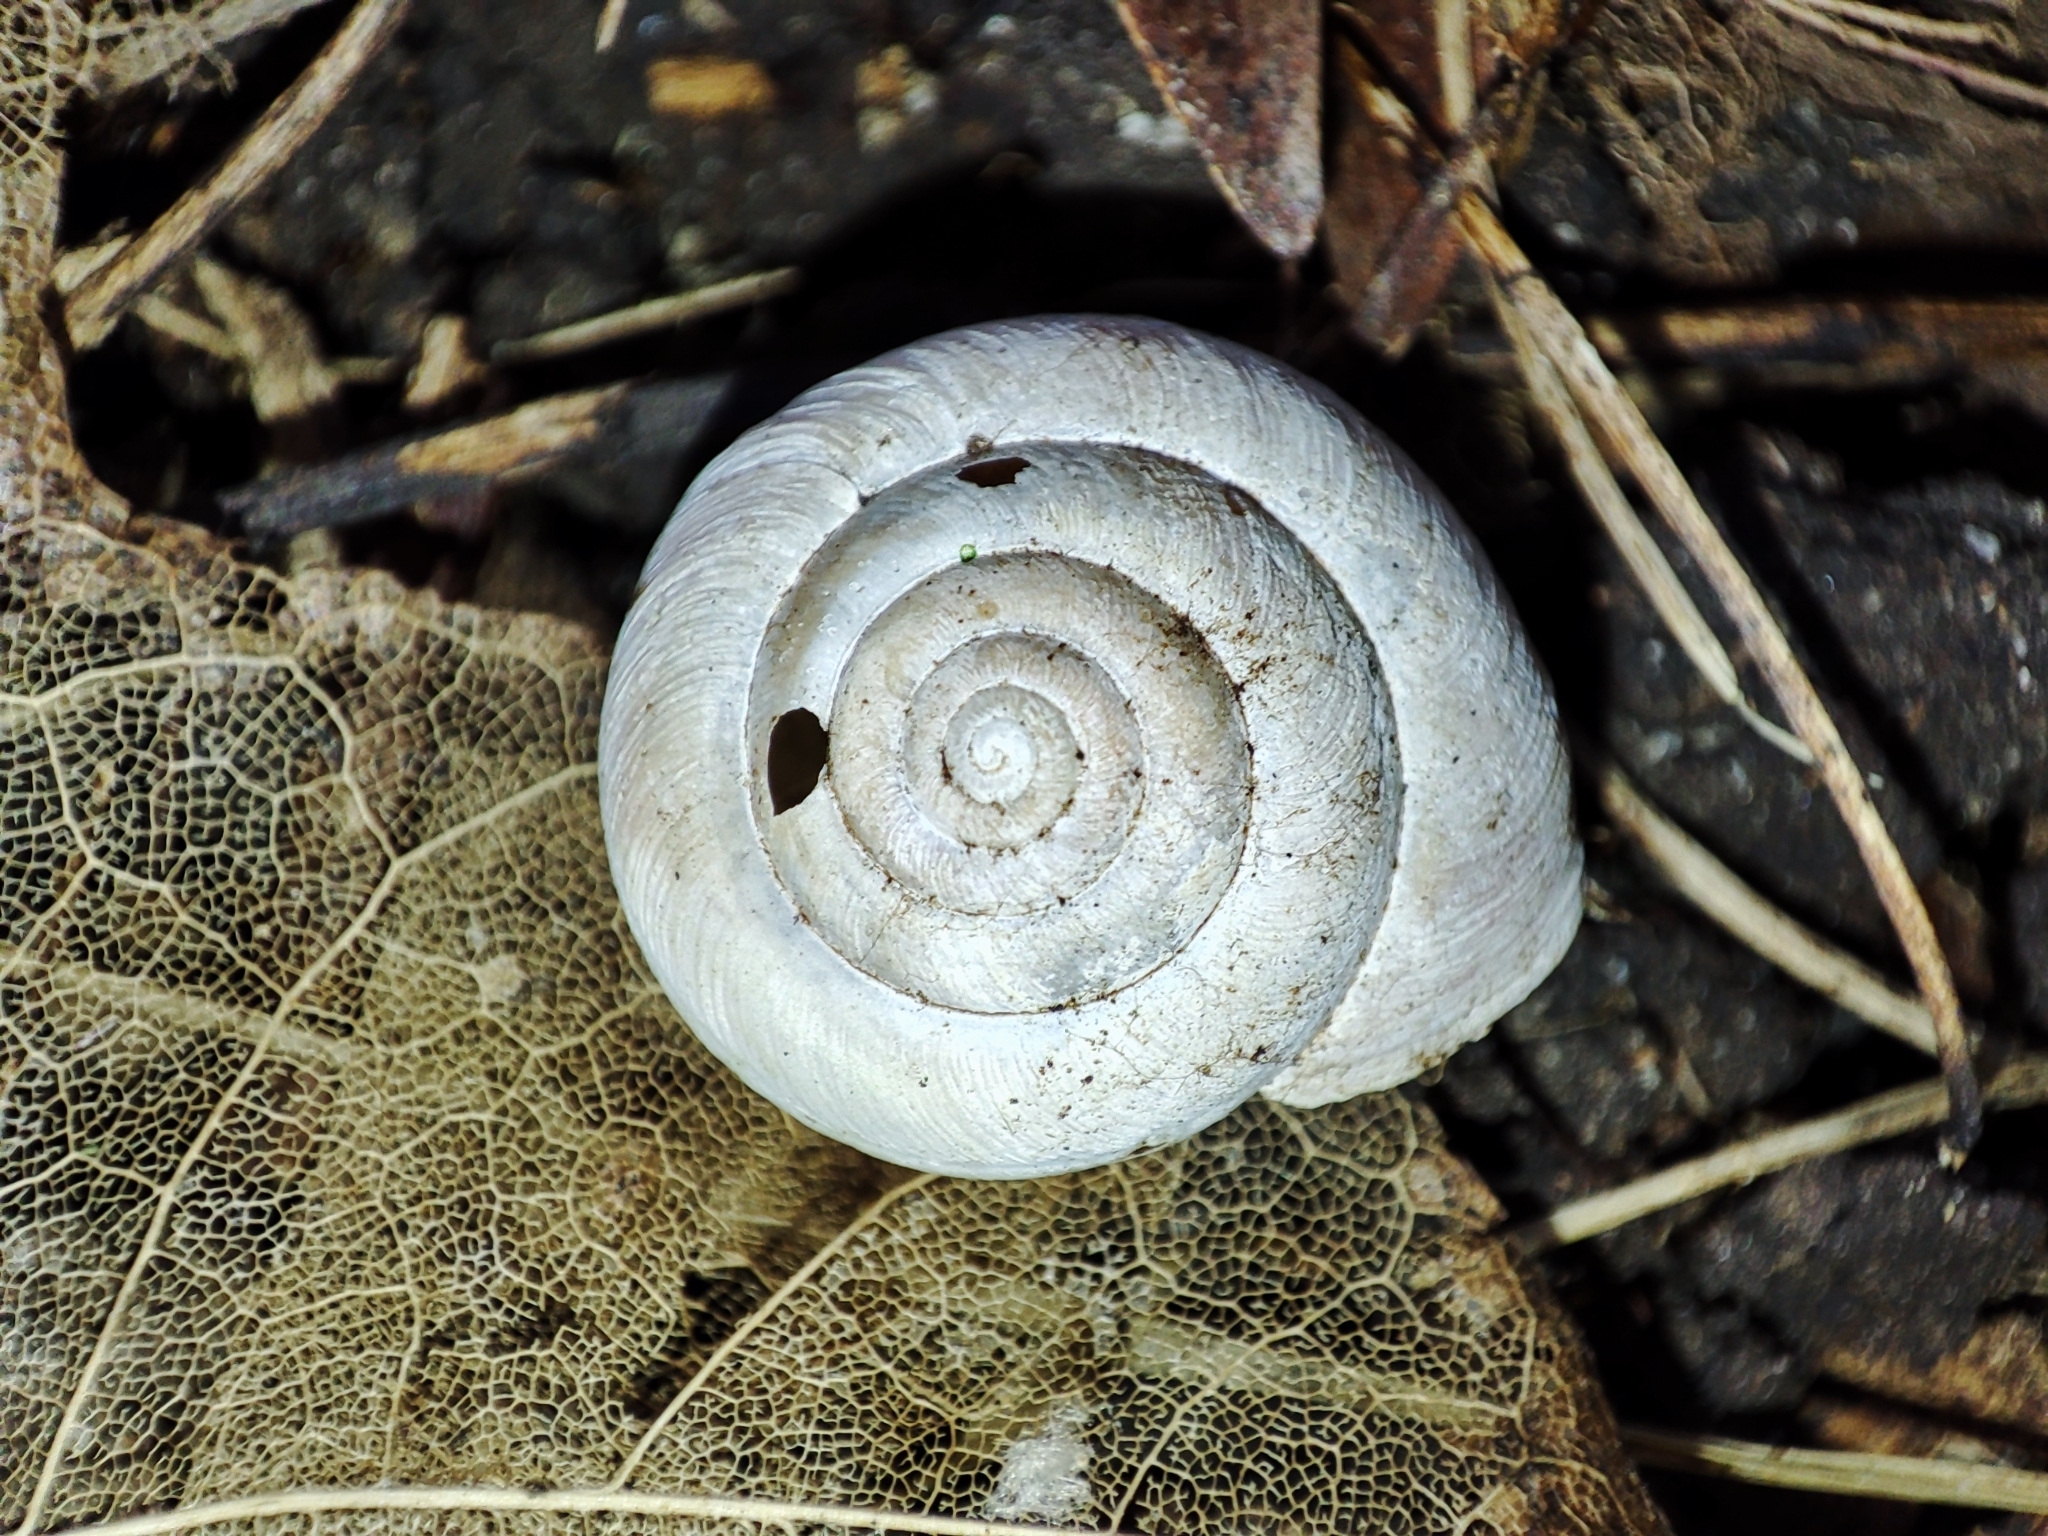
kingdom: Animalia
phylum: Mollusca
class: Gastropoda
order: Stylommatophora
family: Hygromiidae
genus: Euomphalia
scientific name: Euomphalia strigella
